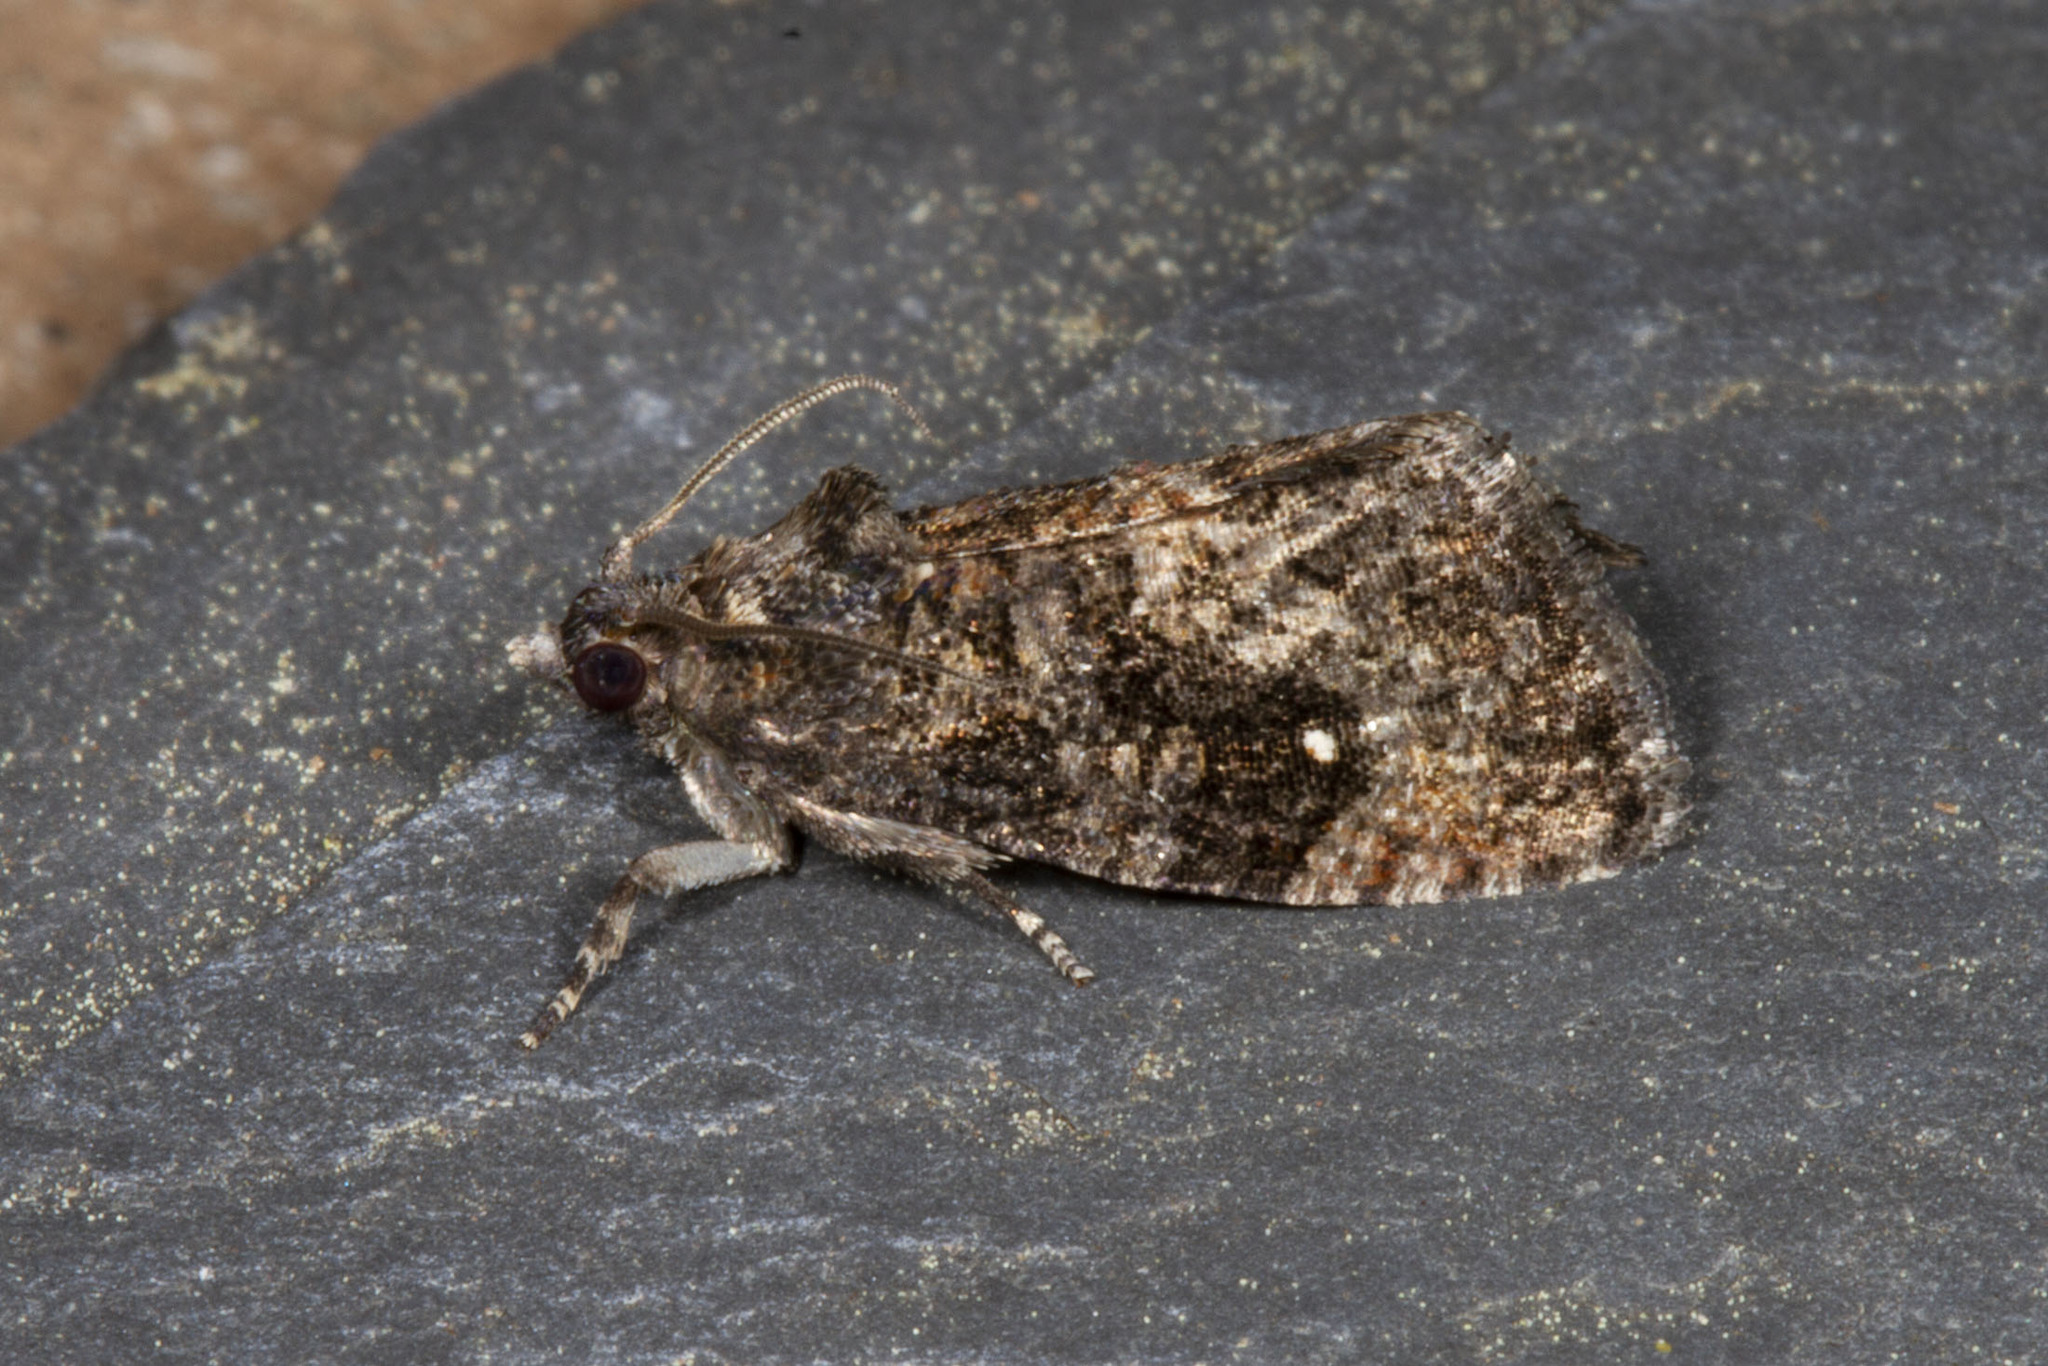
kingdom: Animalia
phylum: Arthropoda
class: Insecta
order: Lepidoptera
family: Tortricidae
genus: Gymnandrosoma
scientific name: Gymnandrosoma punctidiscanum
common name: Dotted ecdytolopha moth
